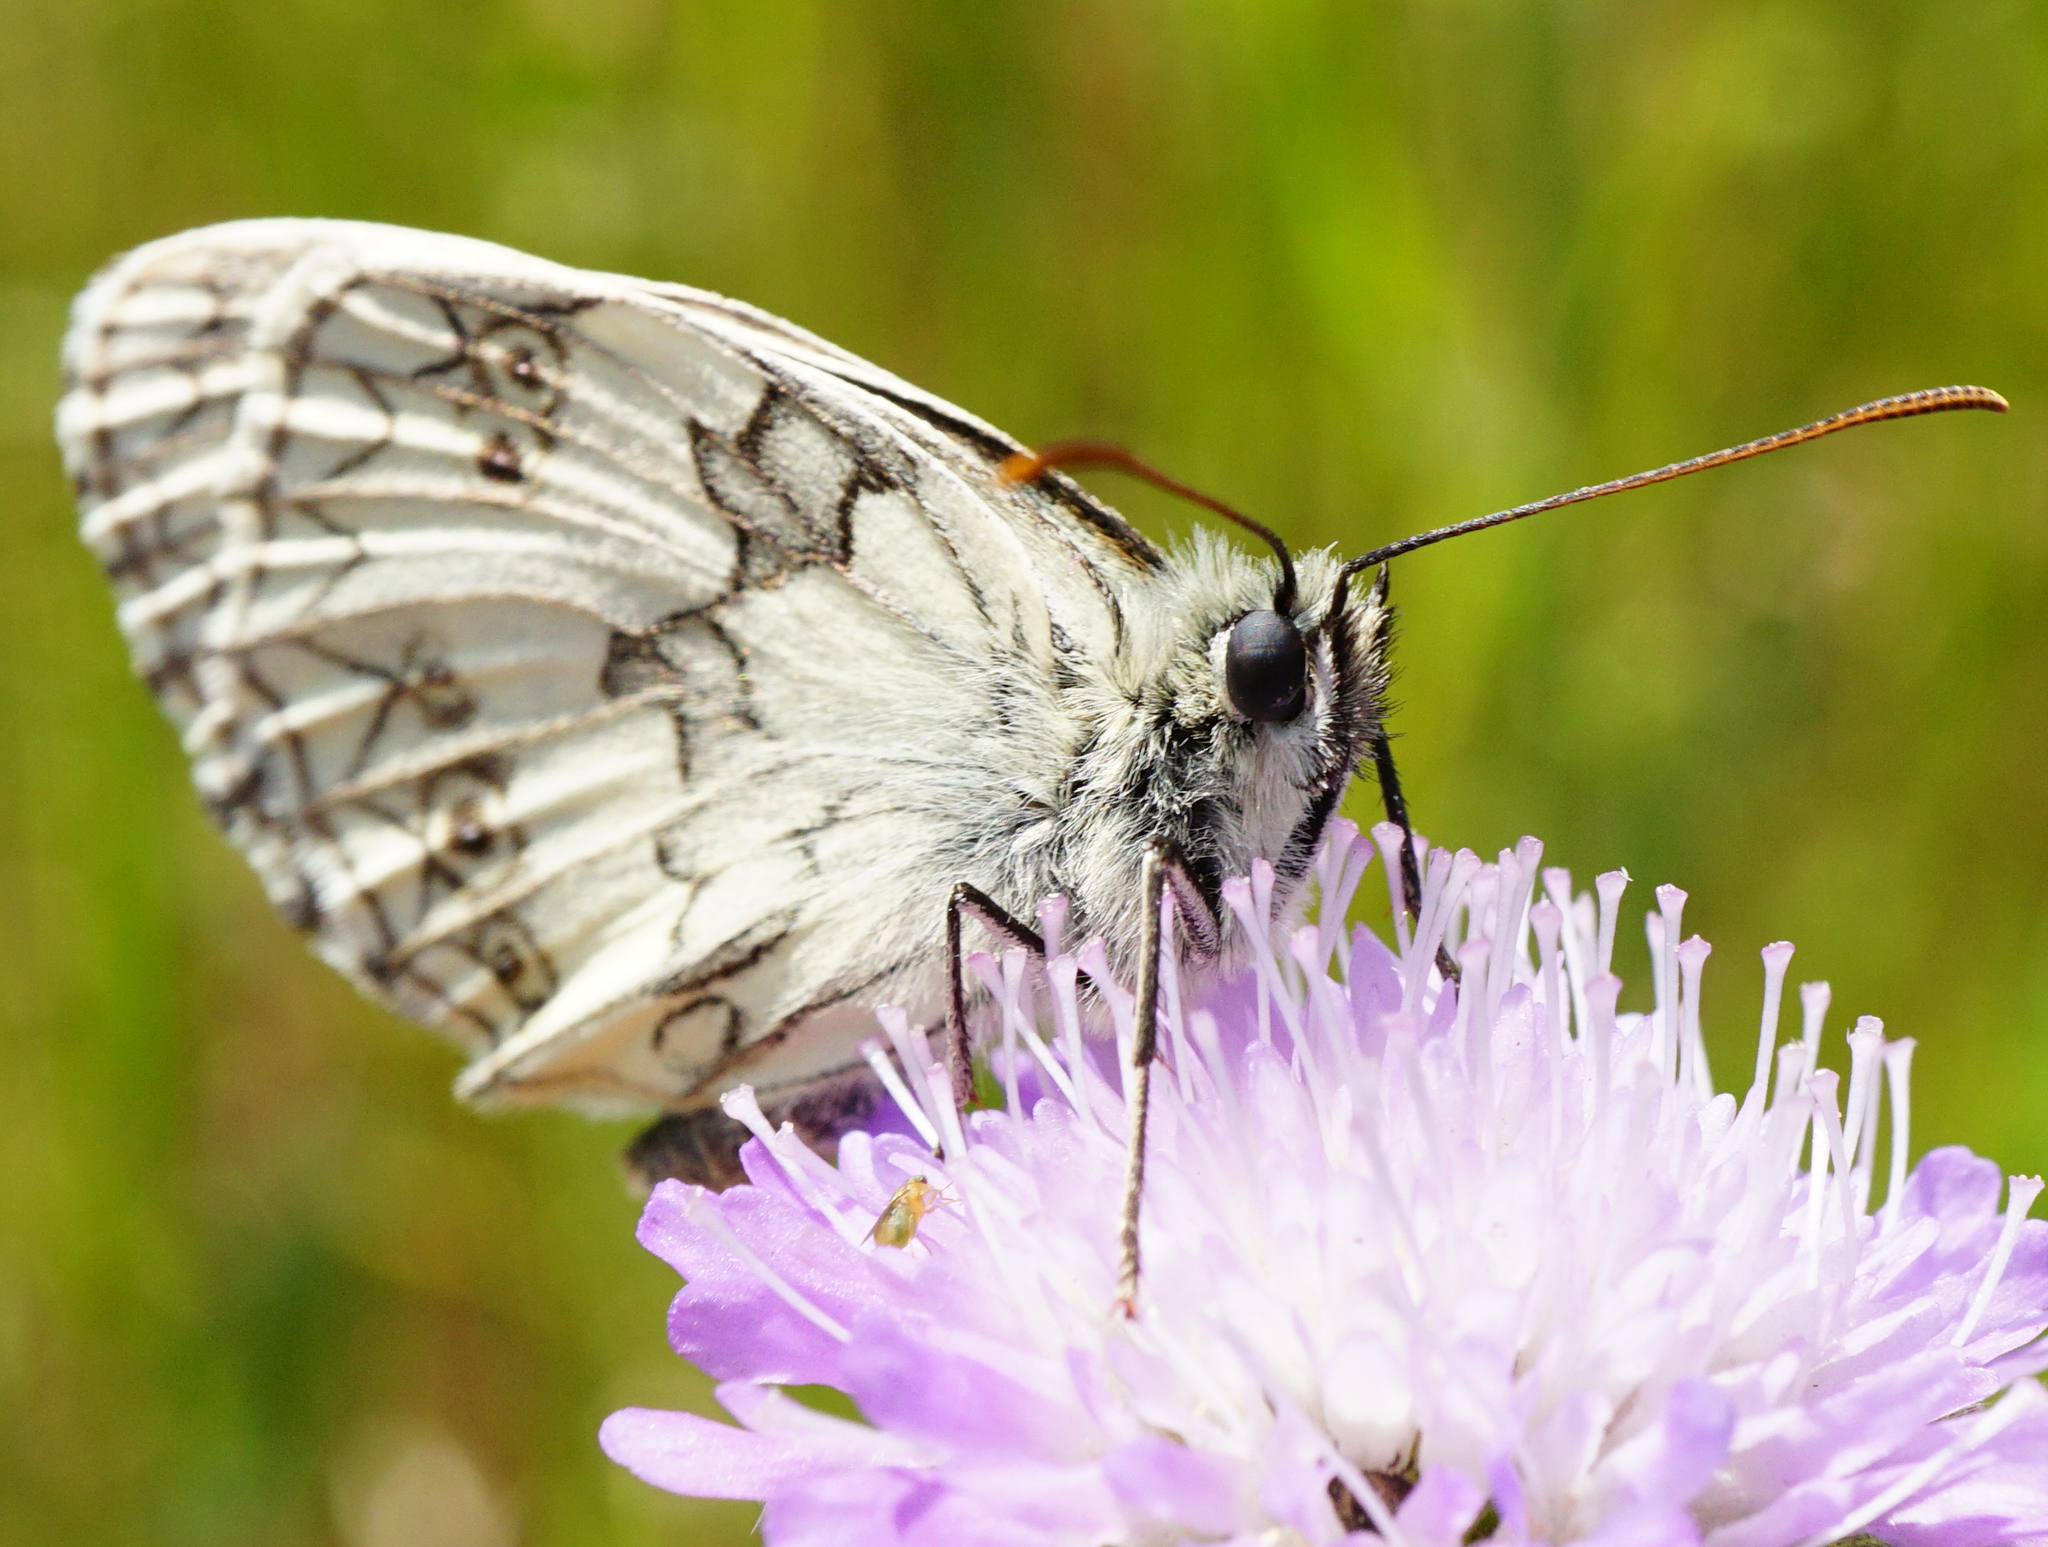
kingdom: Animalia
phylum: Arthropoda
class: Insecta
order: Lepidoptera
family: Nymphalidae
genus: Melanargia
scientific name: Melanargia galathea
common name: Marbled white
